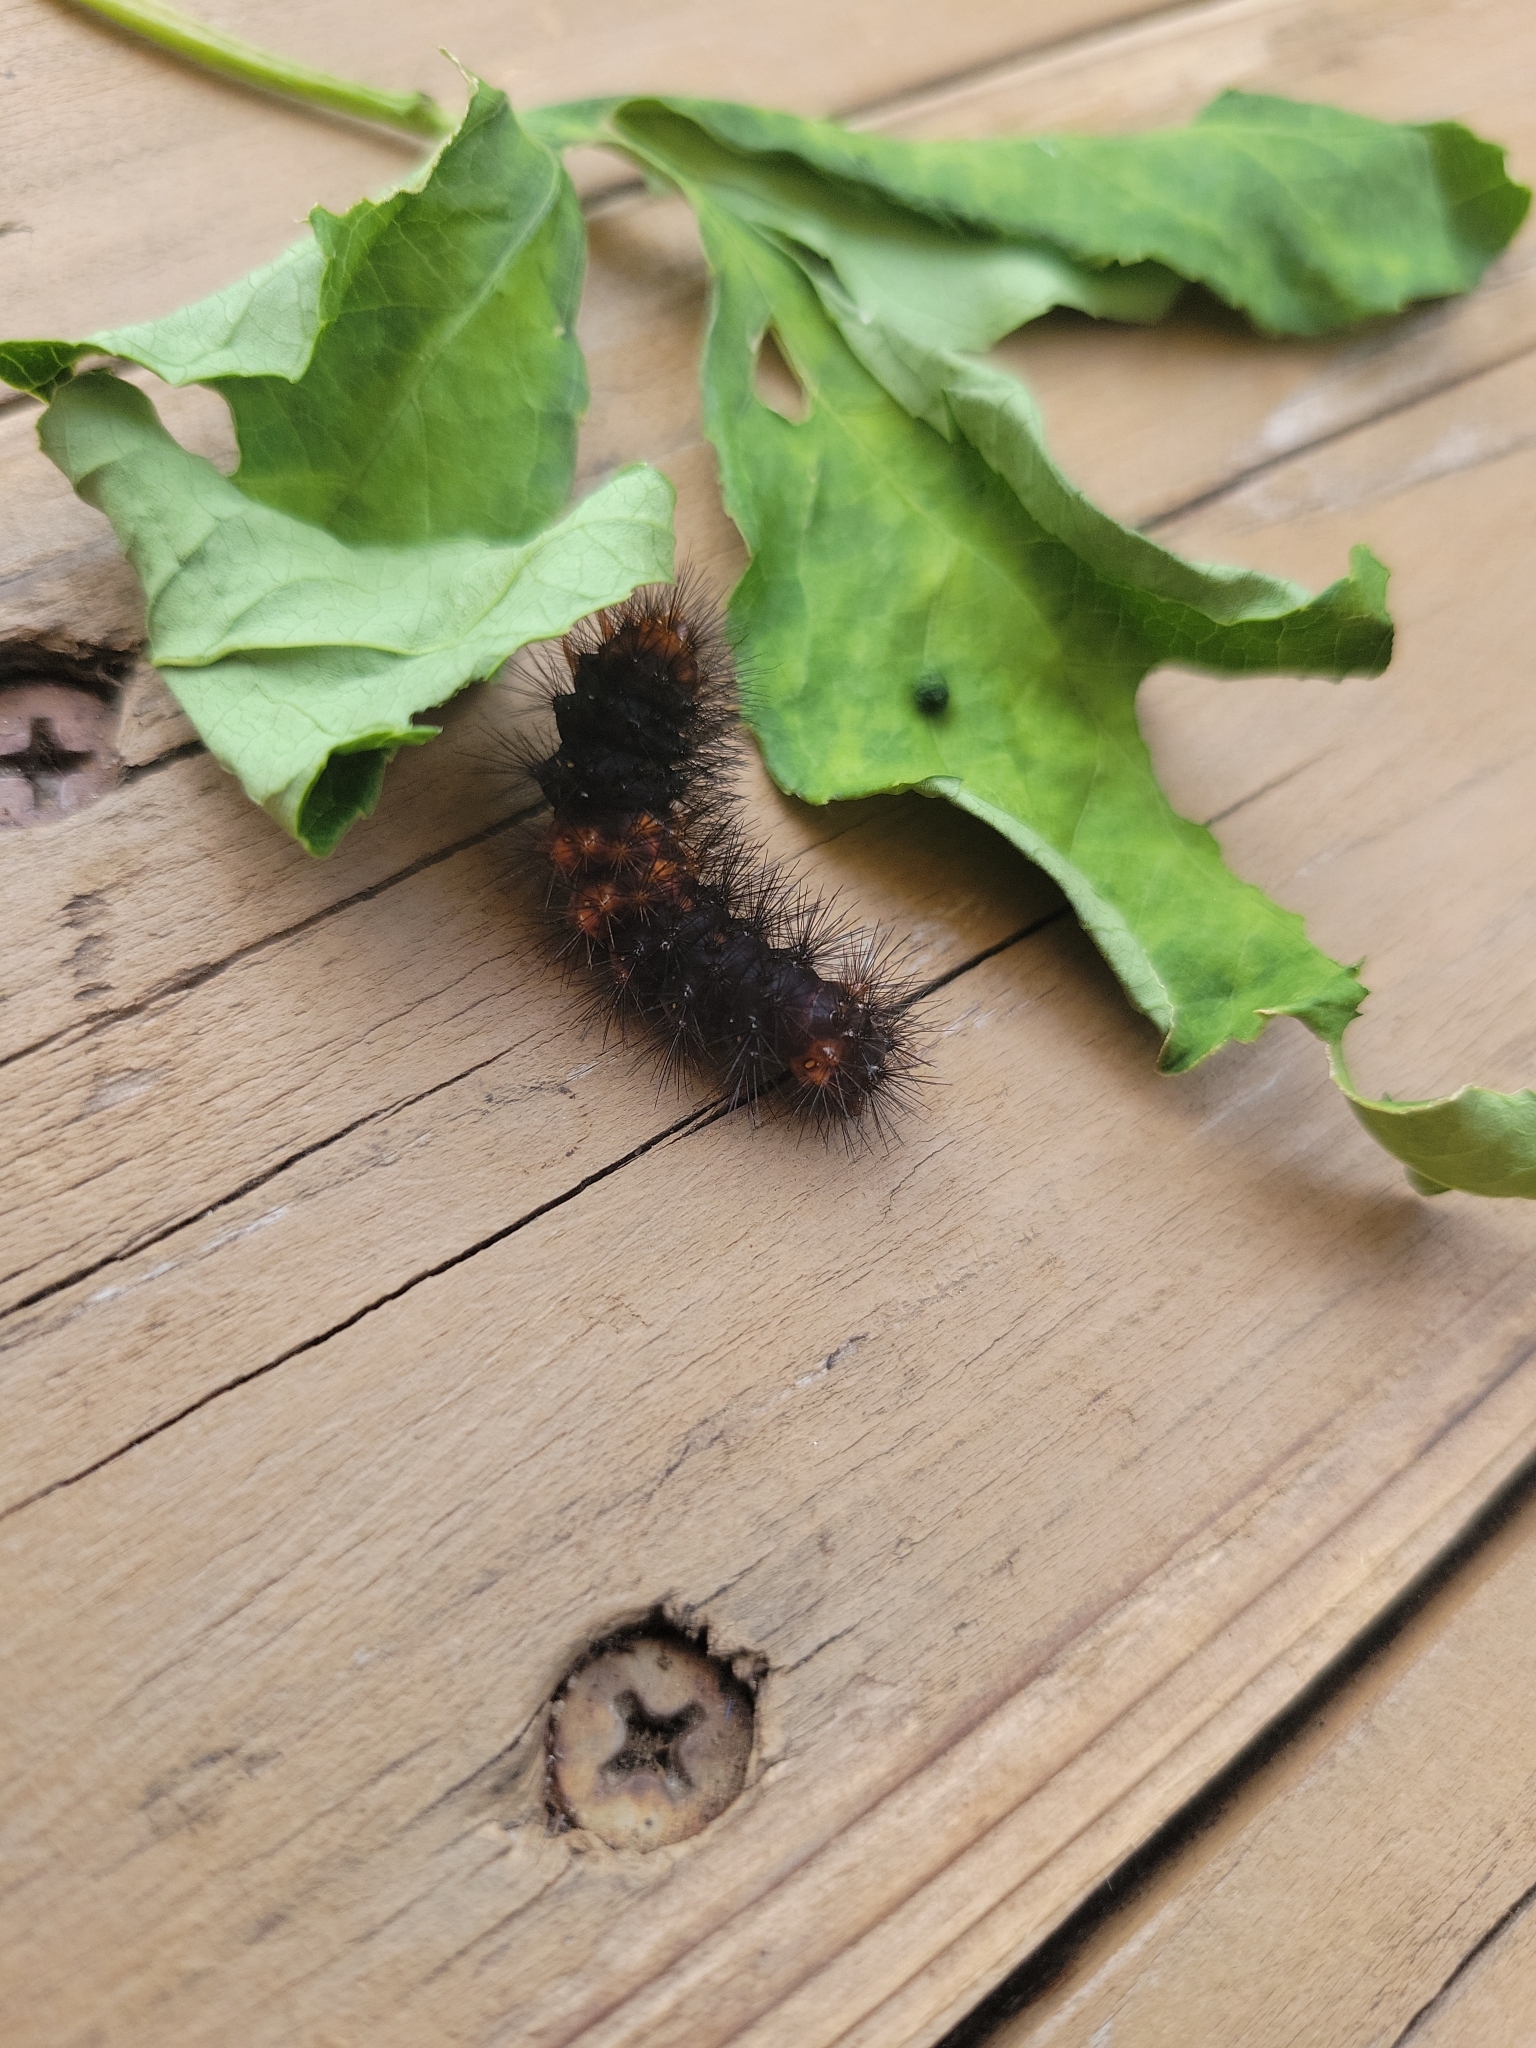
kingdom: Animalia
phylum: Arthropoda
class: Insecta
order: Lepidoptera
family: Erebidae
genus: Hypercompe
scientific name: Hypercompe scribonia
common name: Giant leopard moth
